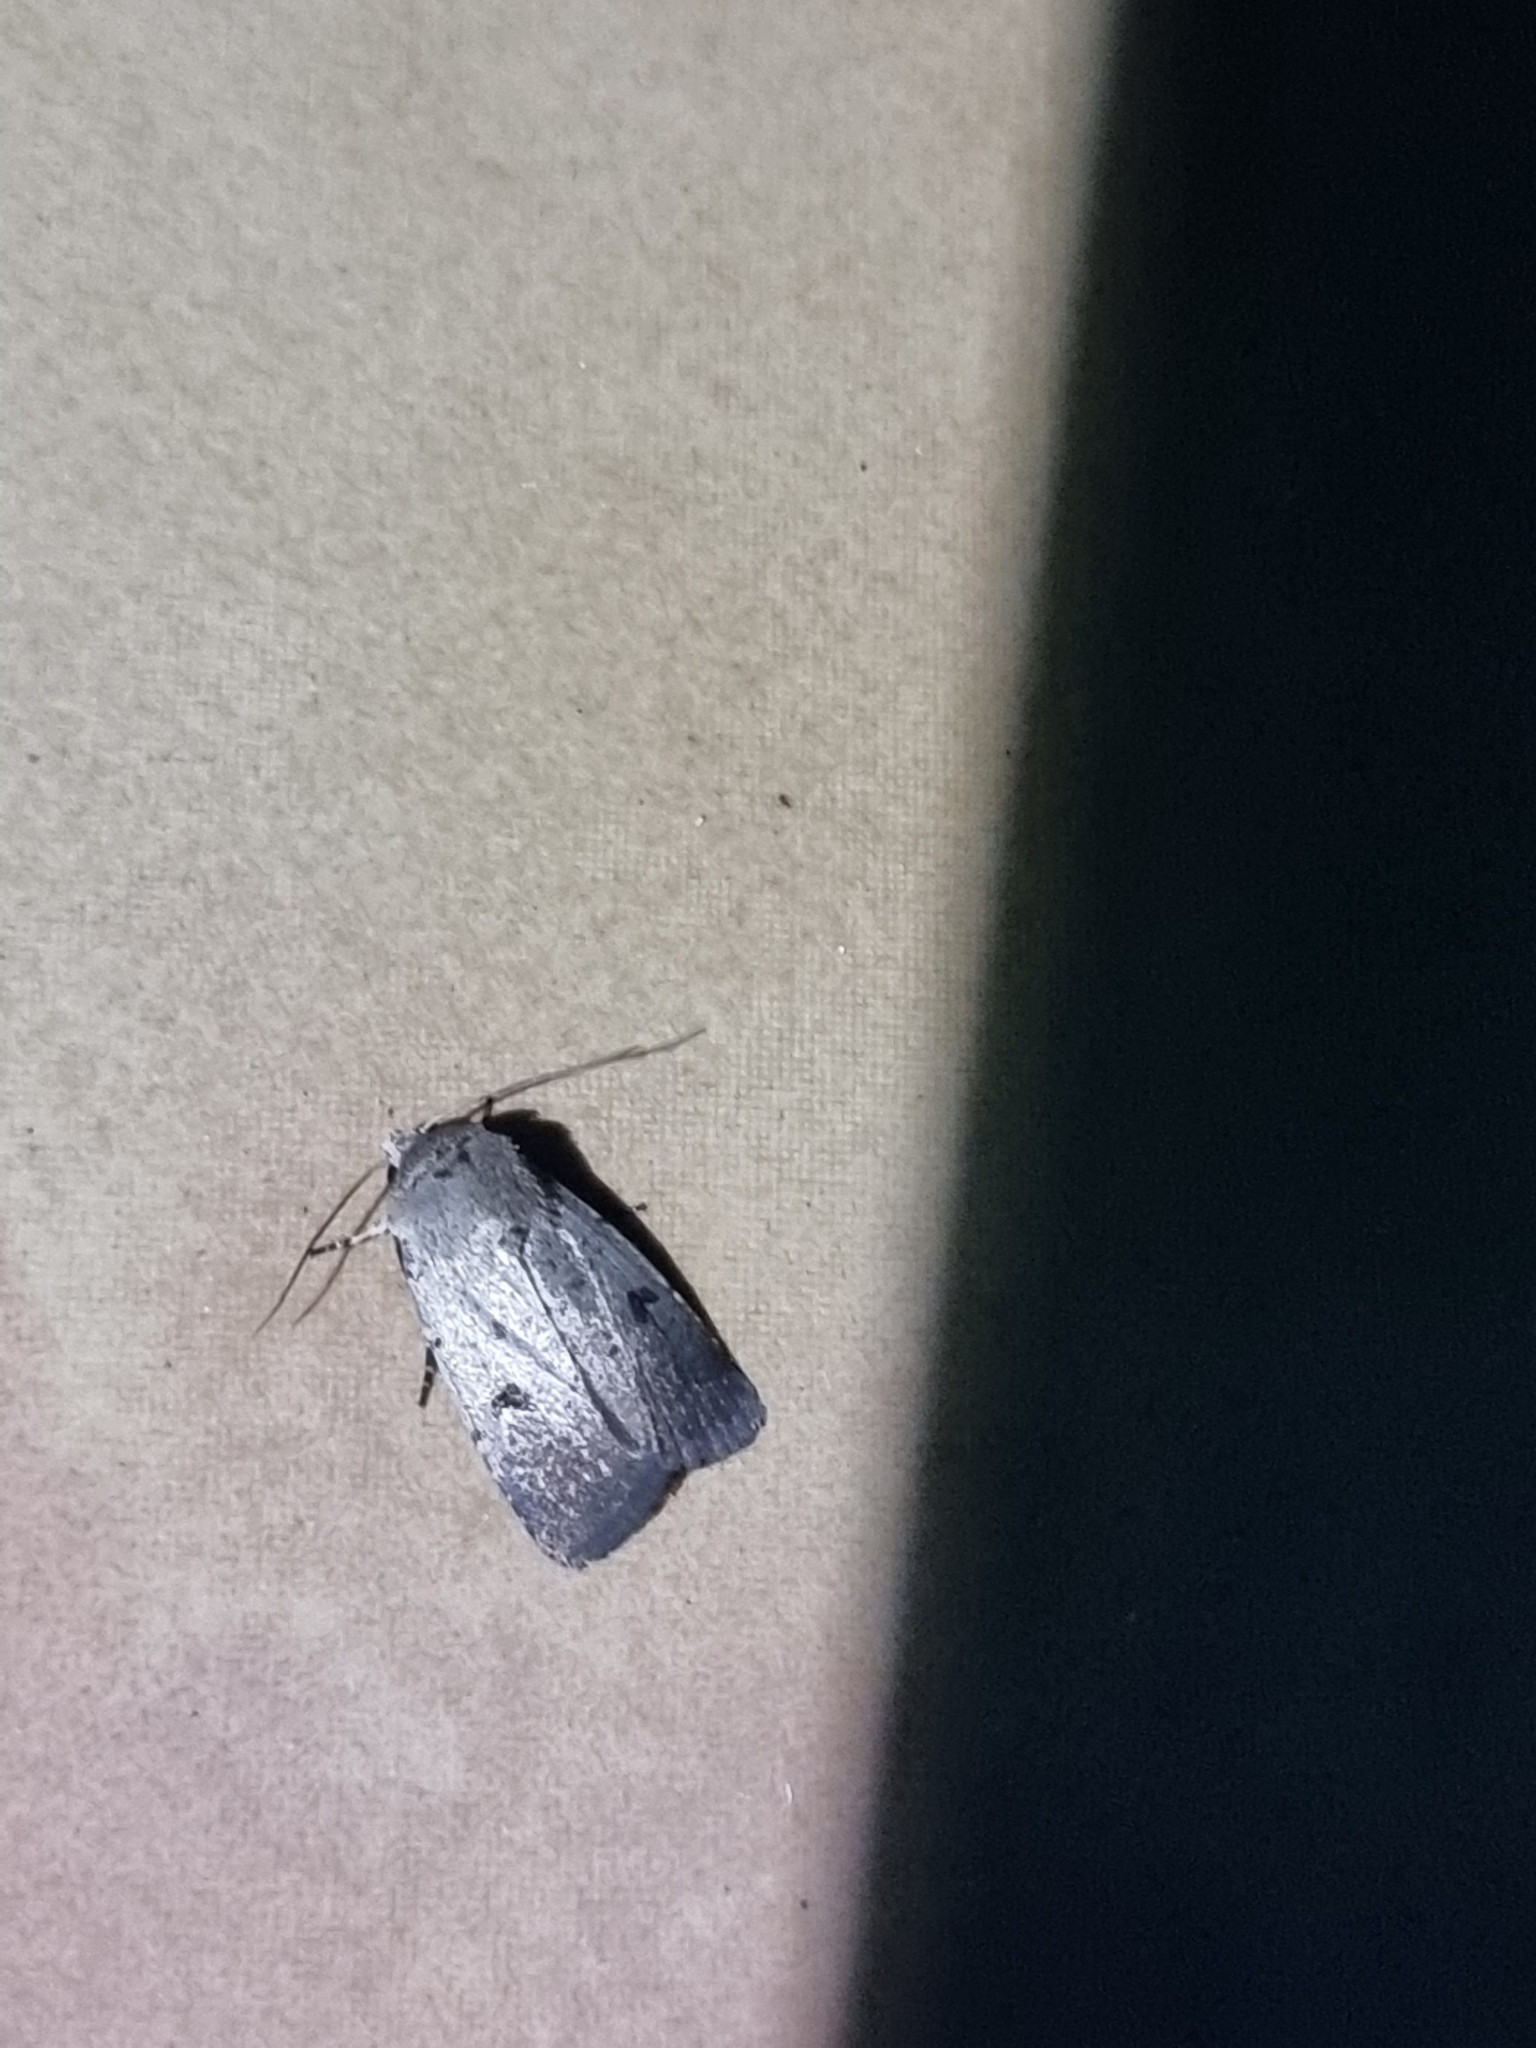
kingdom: Animalia
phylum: Arthropoda
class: Insecta
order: Lepidoptera
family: Noctuidae
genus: Proteuxoa
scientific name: Proteuxoa tibiata
